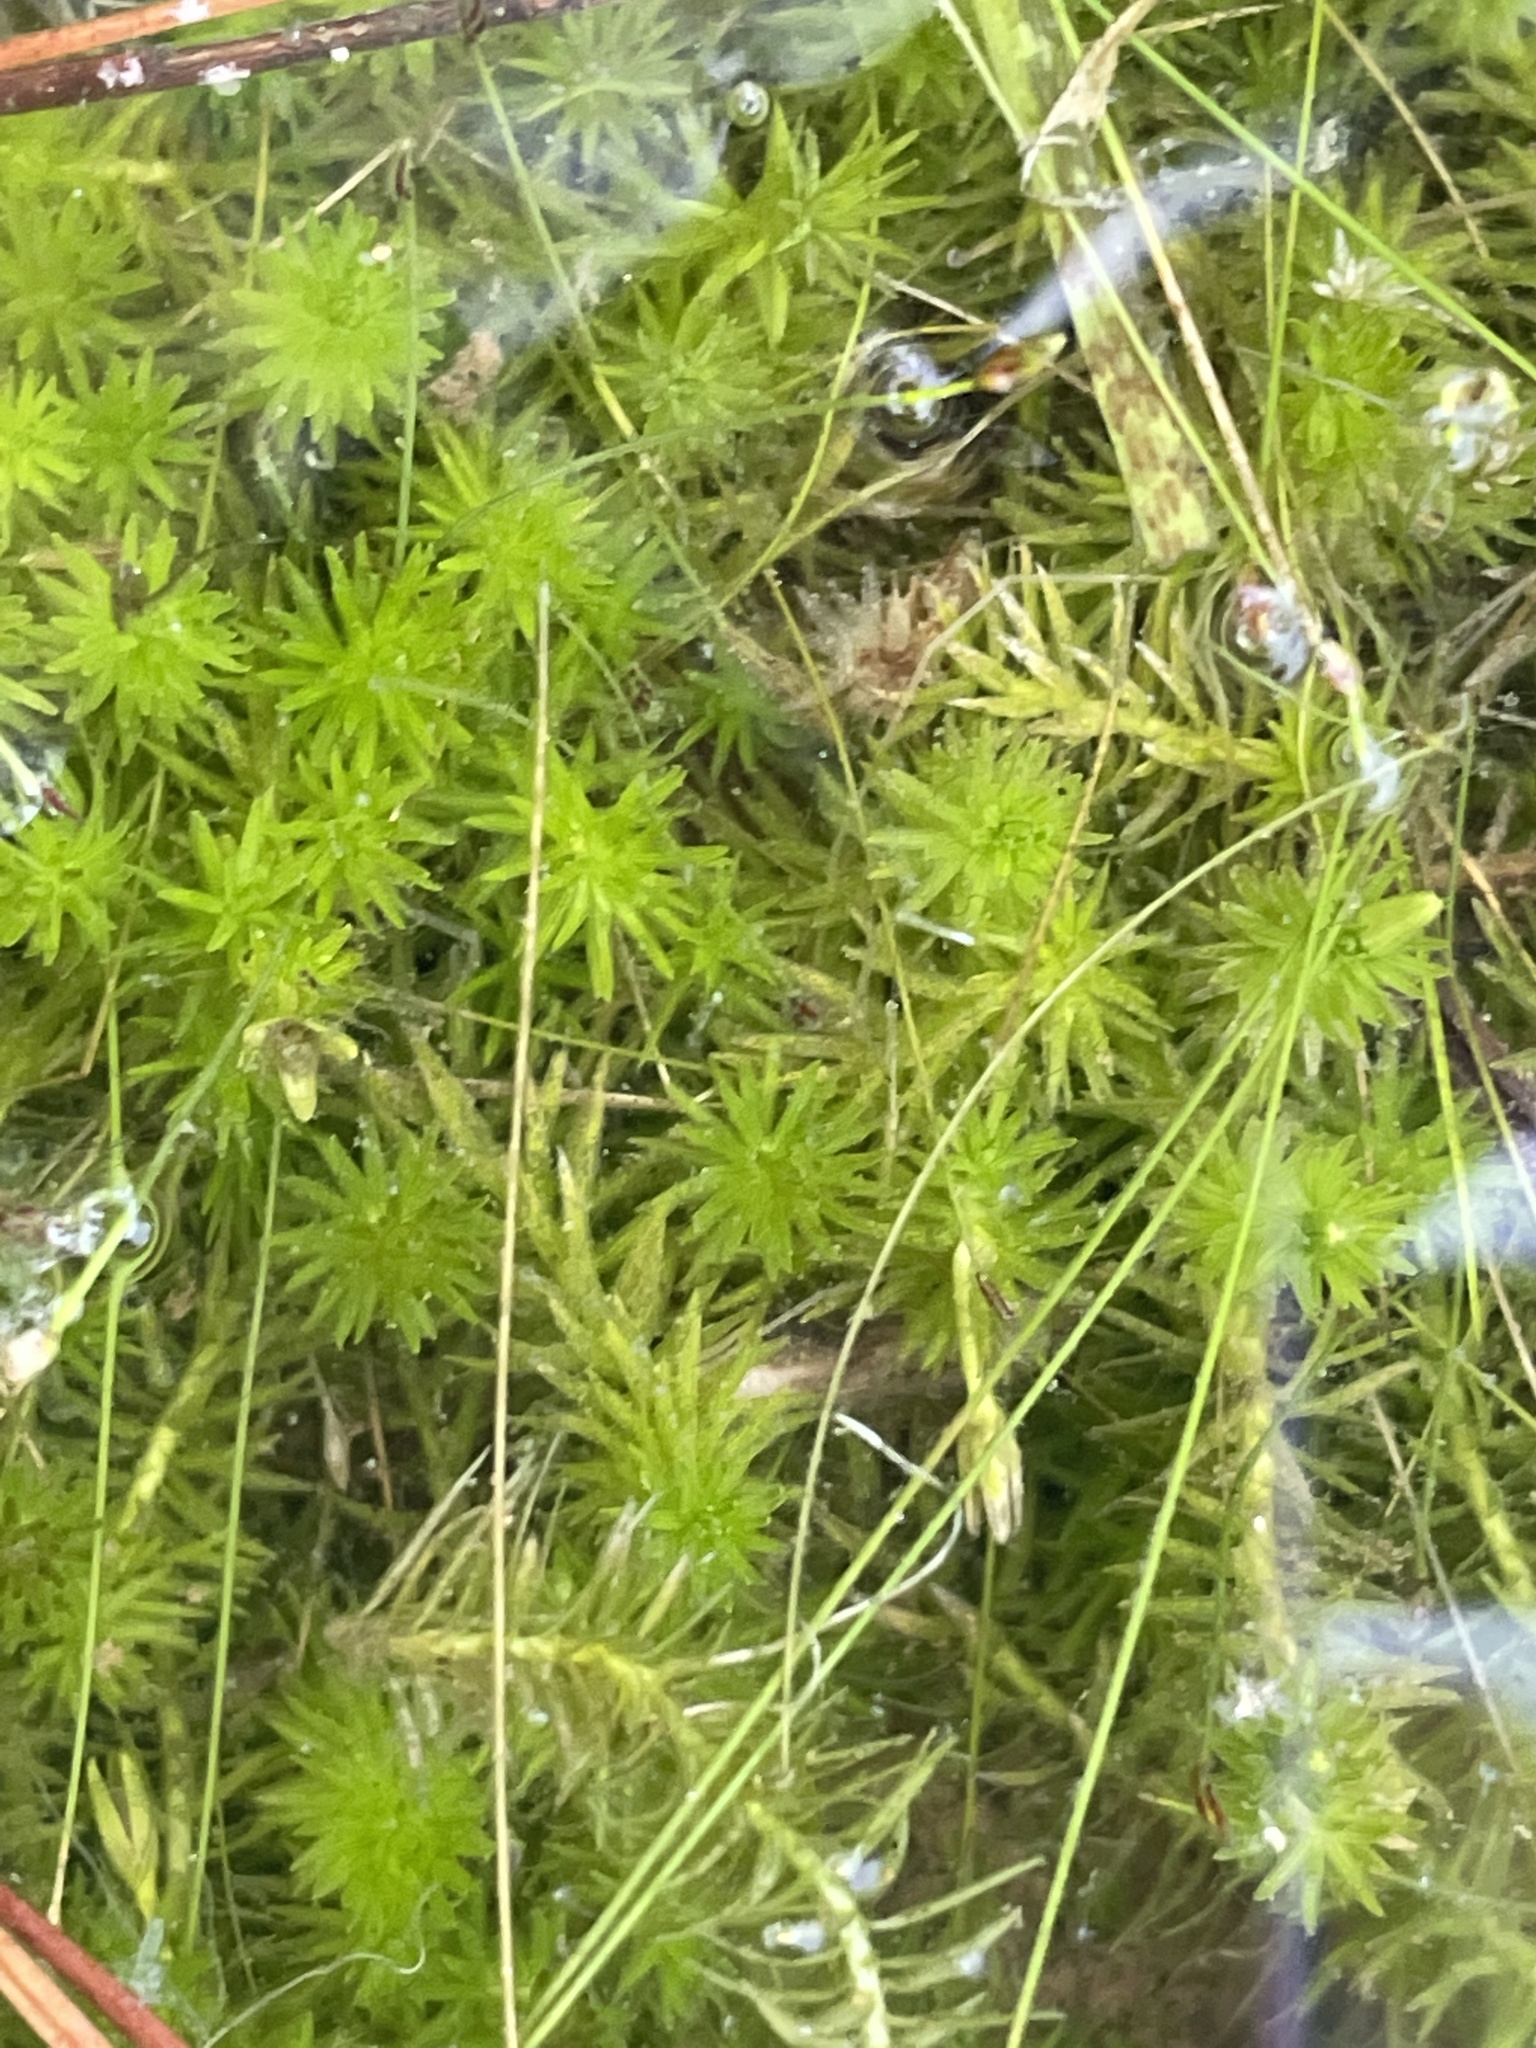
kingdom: Plantae
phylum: Tracheophyta
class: Liliopsida
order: Poales
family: Mayacaceae
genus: Mayaca
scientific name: Mayaca fluviatilis
